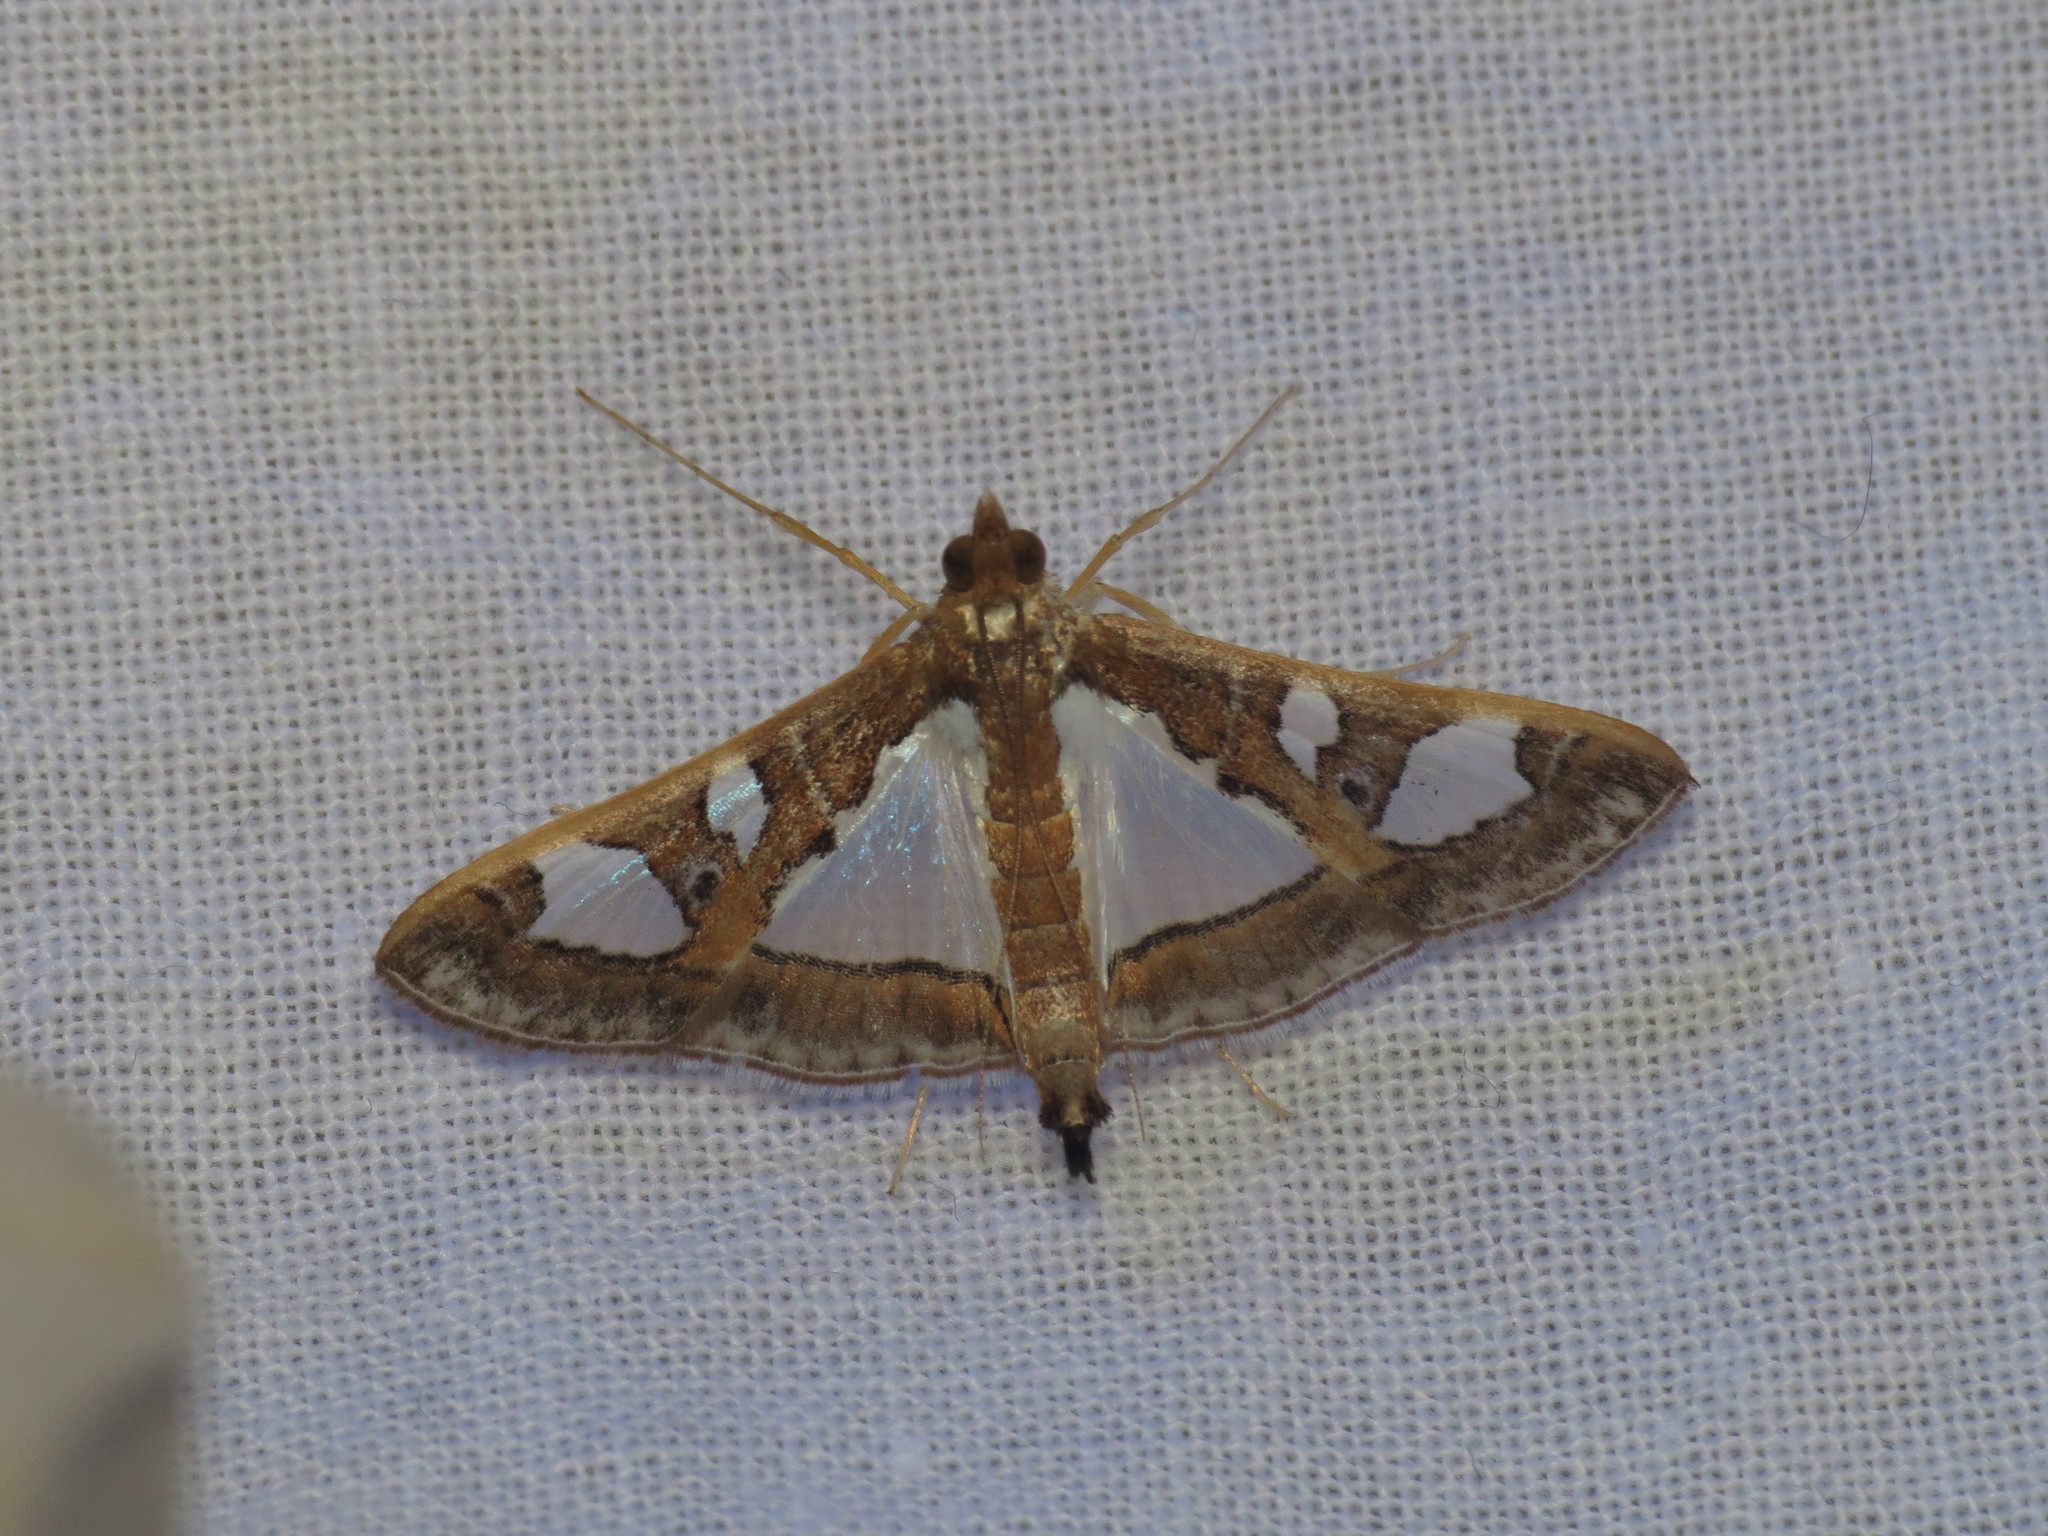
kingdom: Animalia
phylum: Arthropoda
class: Insecta
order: Lepidoptera
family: Crambidae
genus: Glyphodes
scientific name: Glyphodes bivitralis
